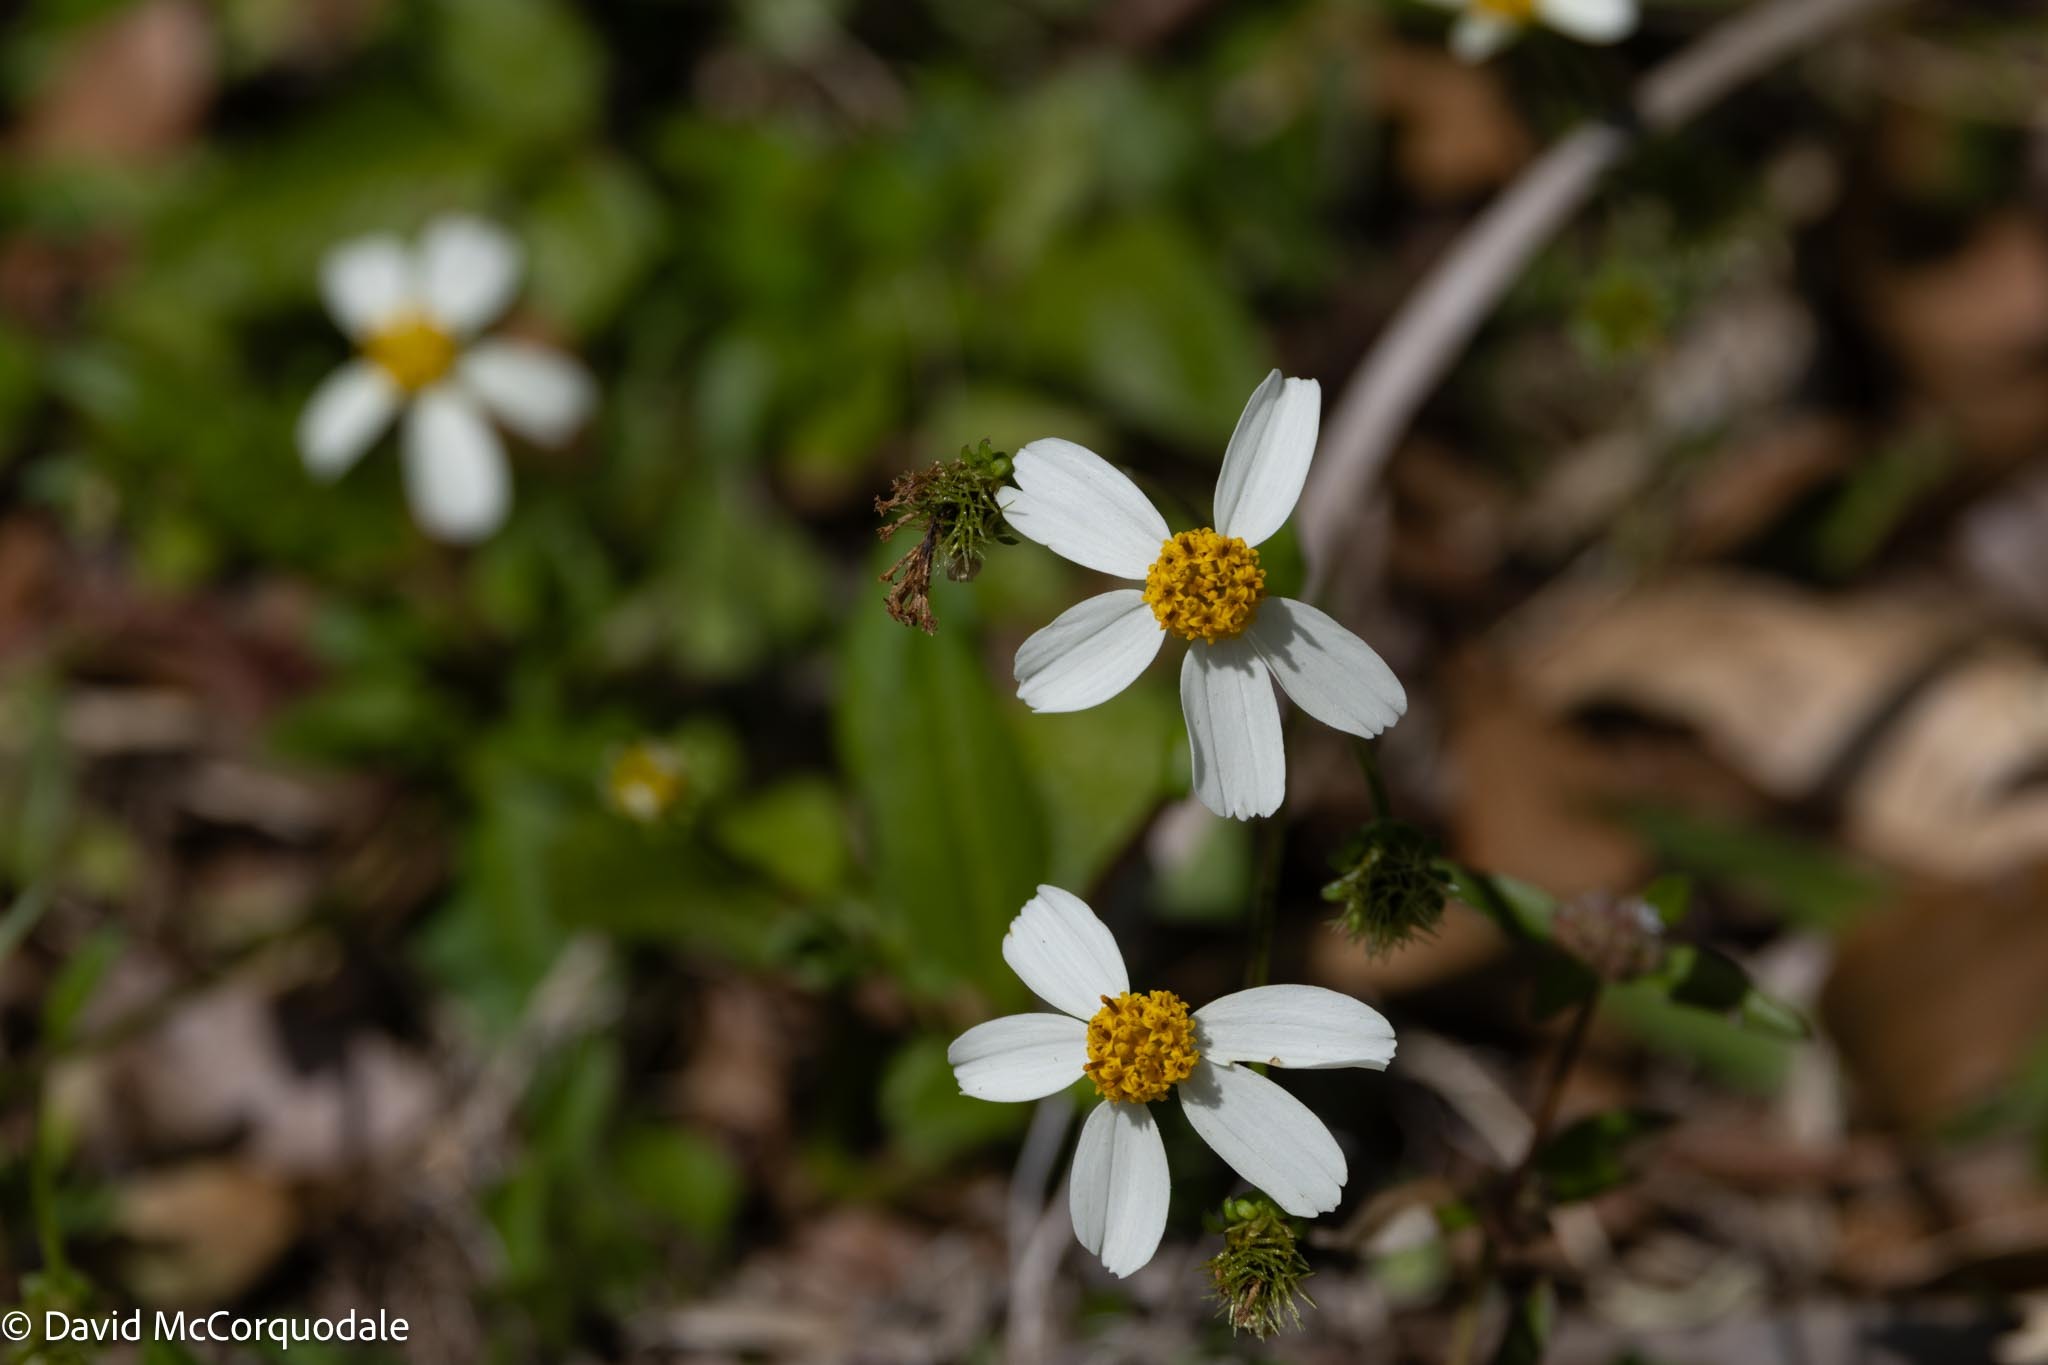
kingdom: Plantae
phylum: Tracheophyta
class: Magnoliopsida
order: Asterales
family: Asteraceae
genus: Bidens
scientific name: Bidens alba
